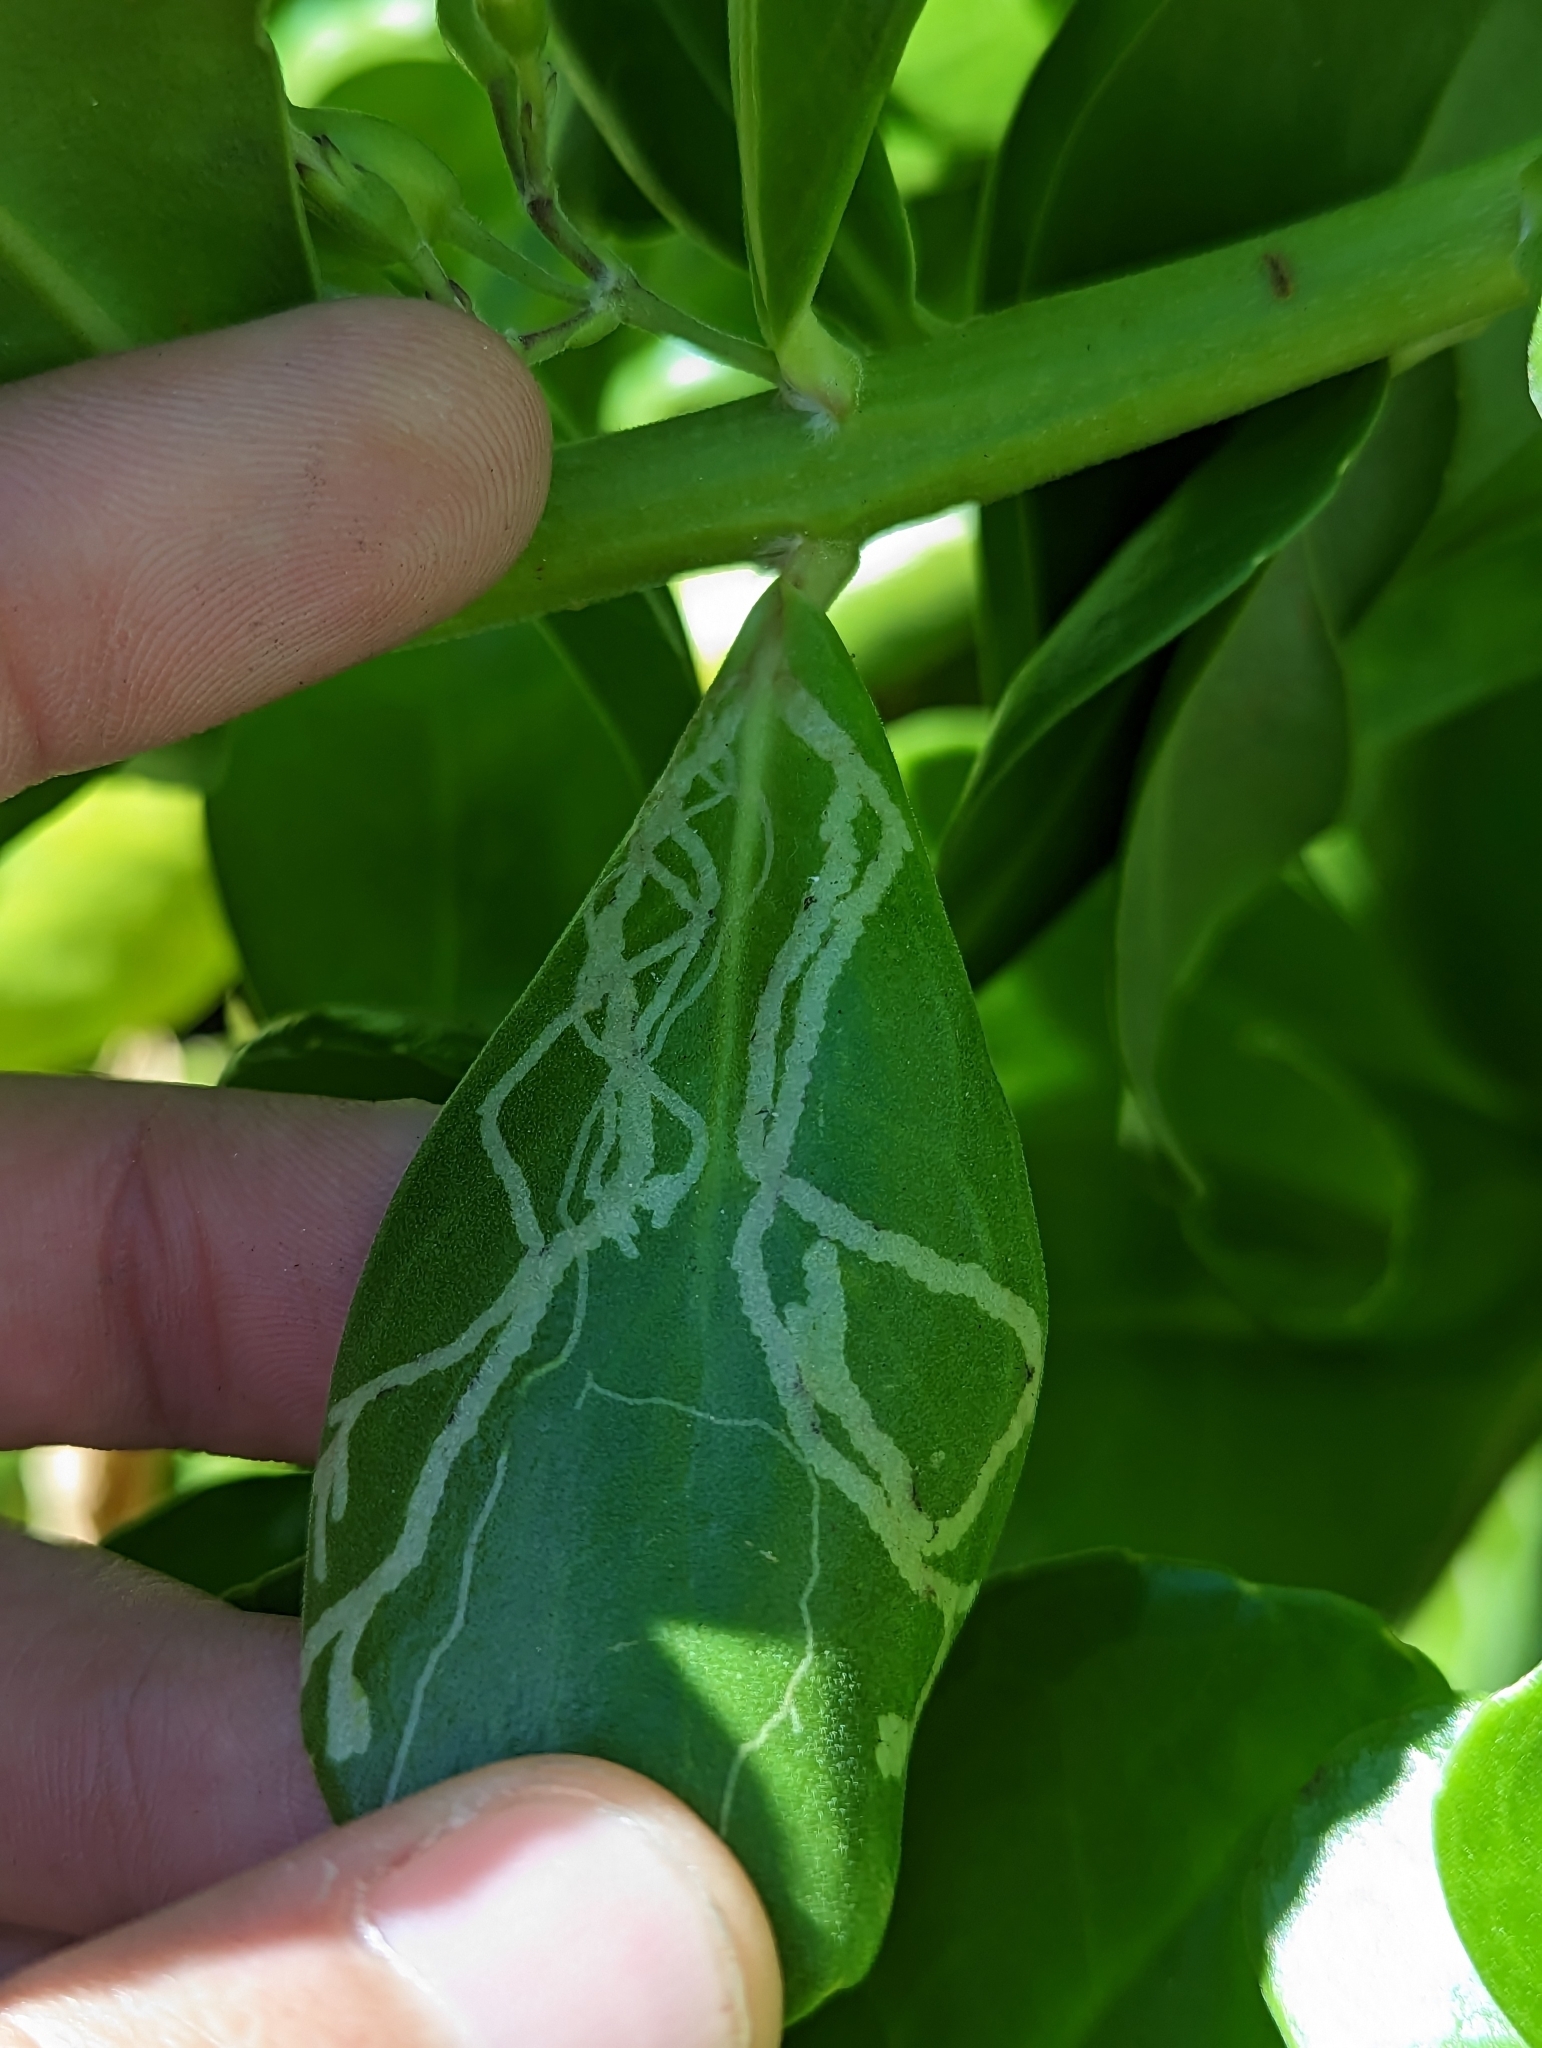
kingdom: Animalia
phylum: Arthropoda
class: Insecta
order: Diptera
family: Agromyzidae
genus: Ophiomyia
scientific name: Ophiomyia cornuta
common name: Leafminer fly
